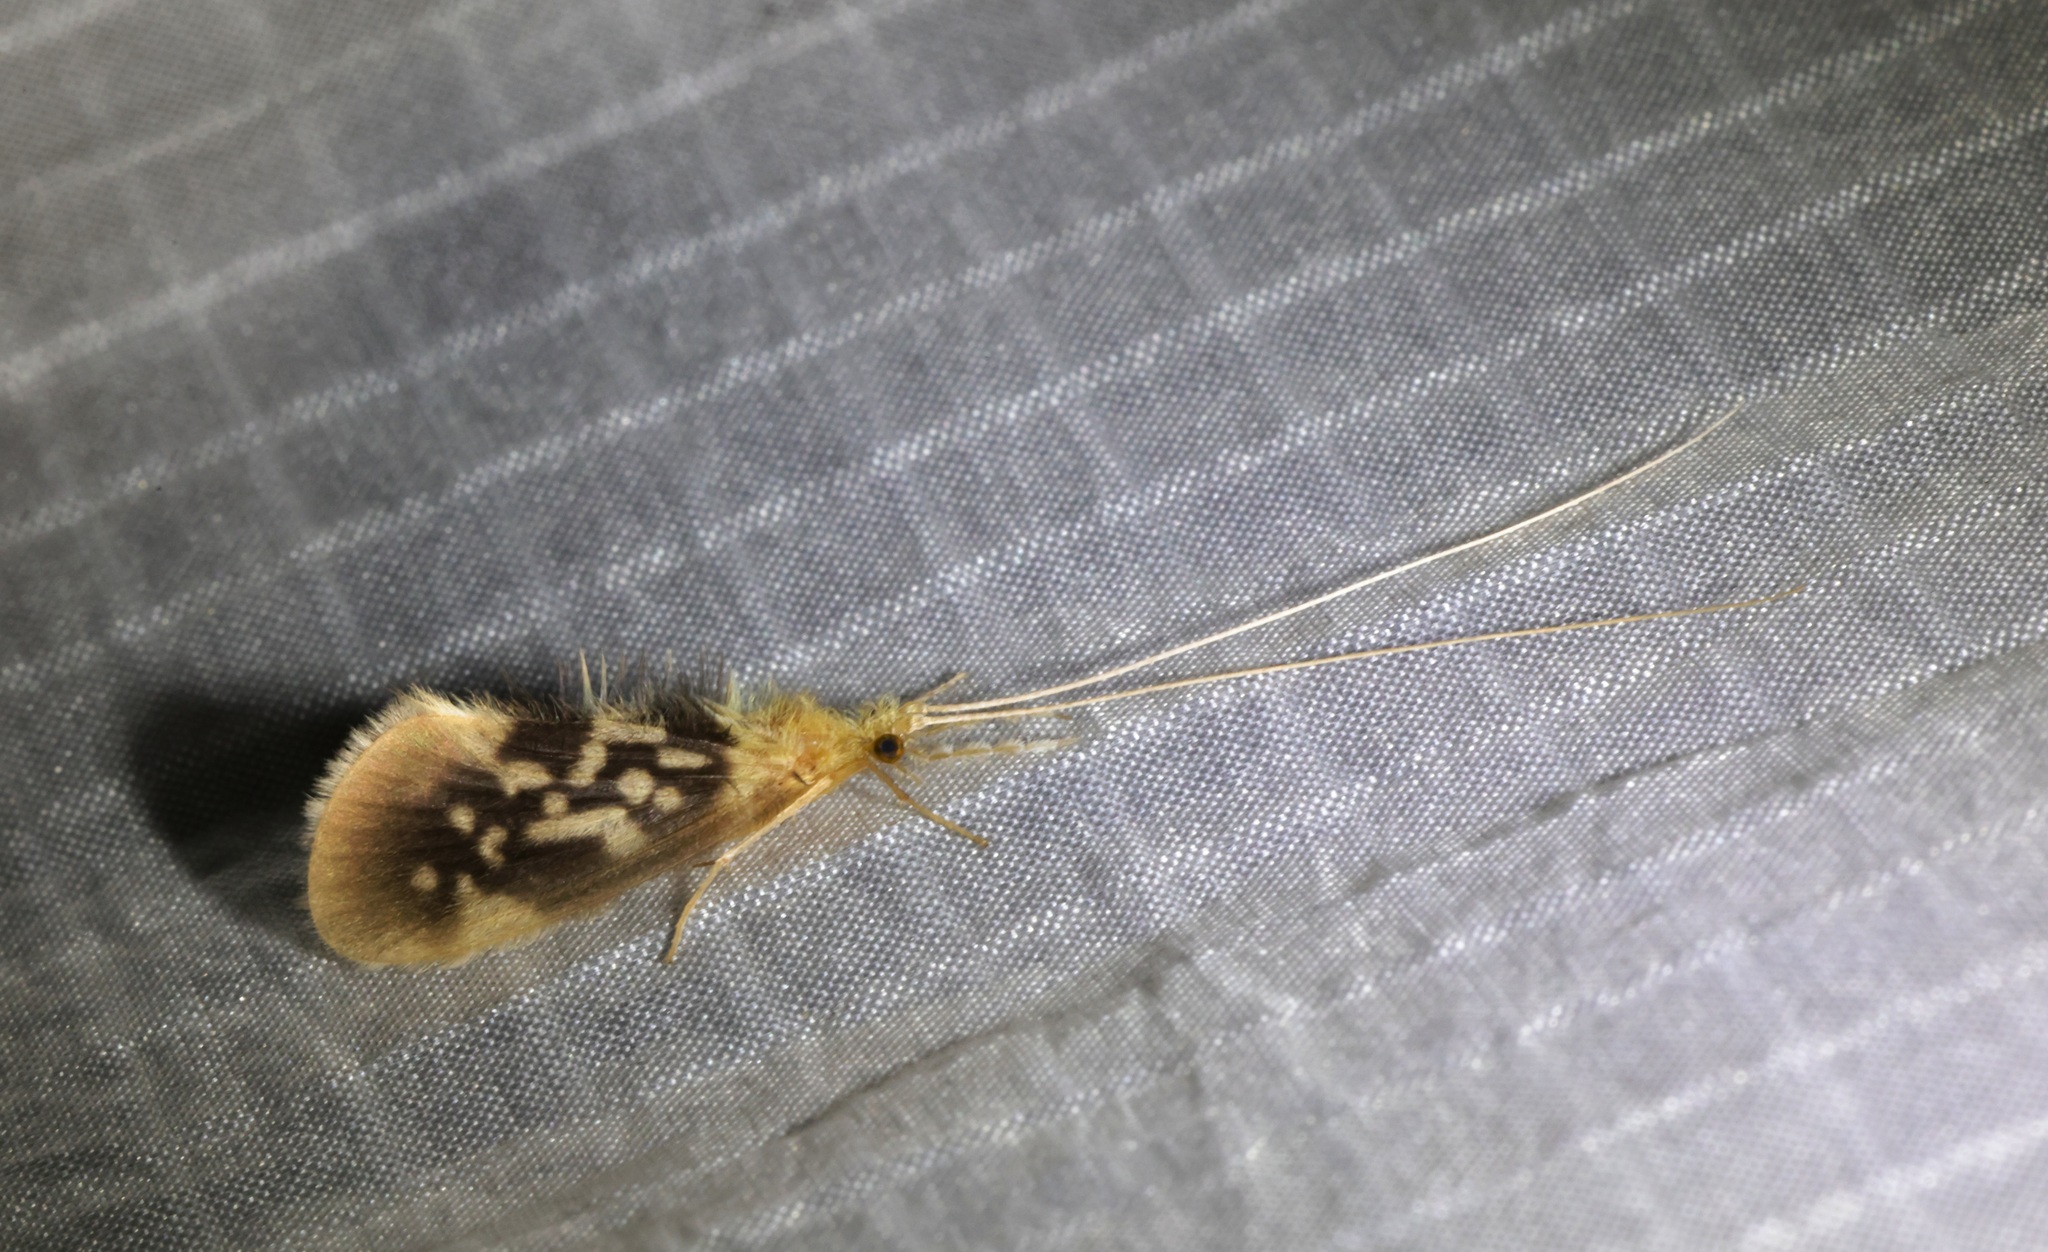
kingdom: Animalia
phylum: Arthropoda
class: Insecta
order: Trichoptera
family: Calamoceratidae
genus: Ganonema
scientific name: Ganonema
